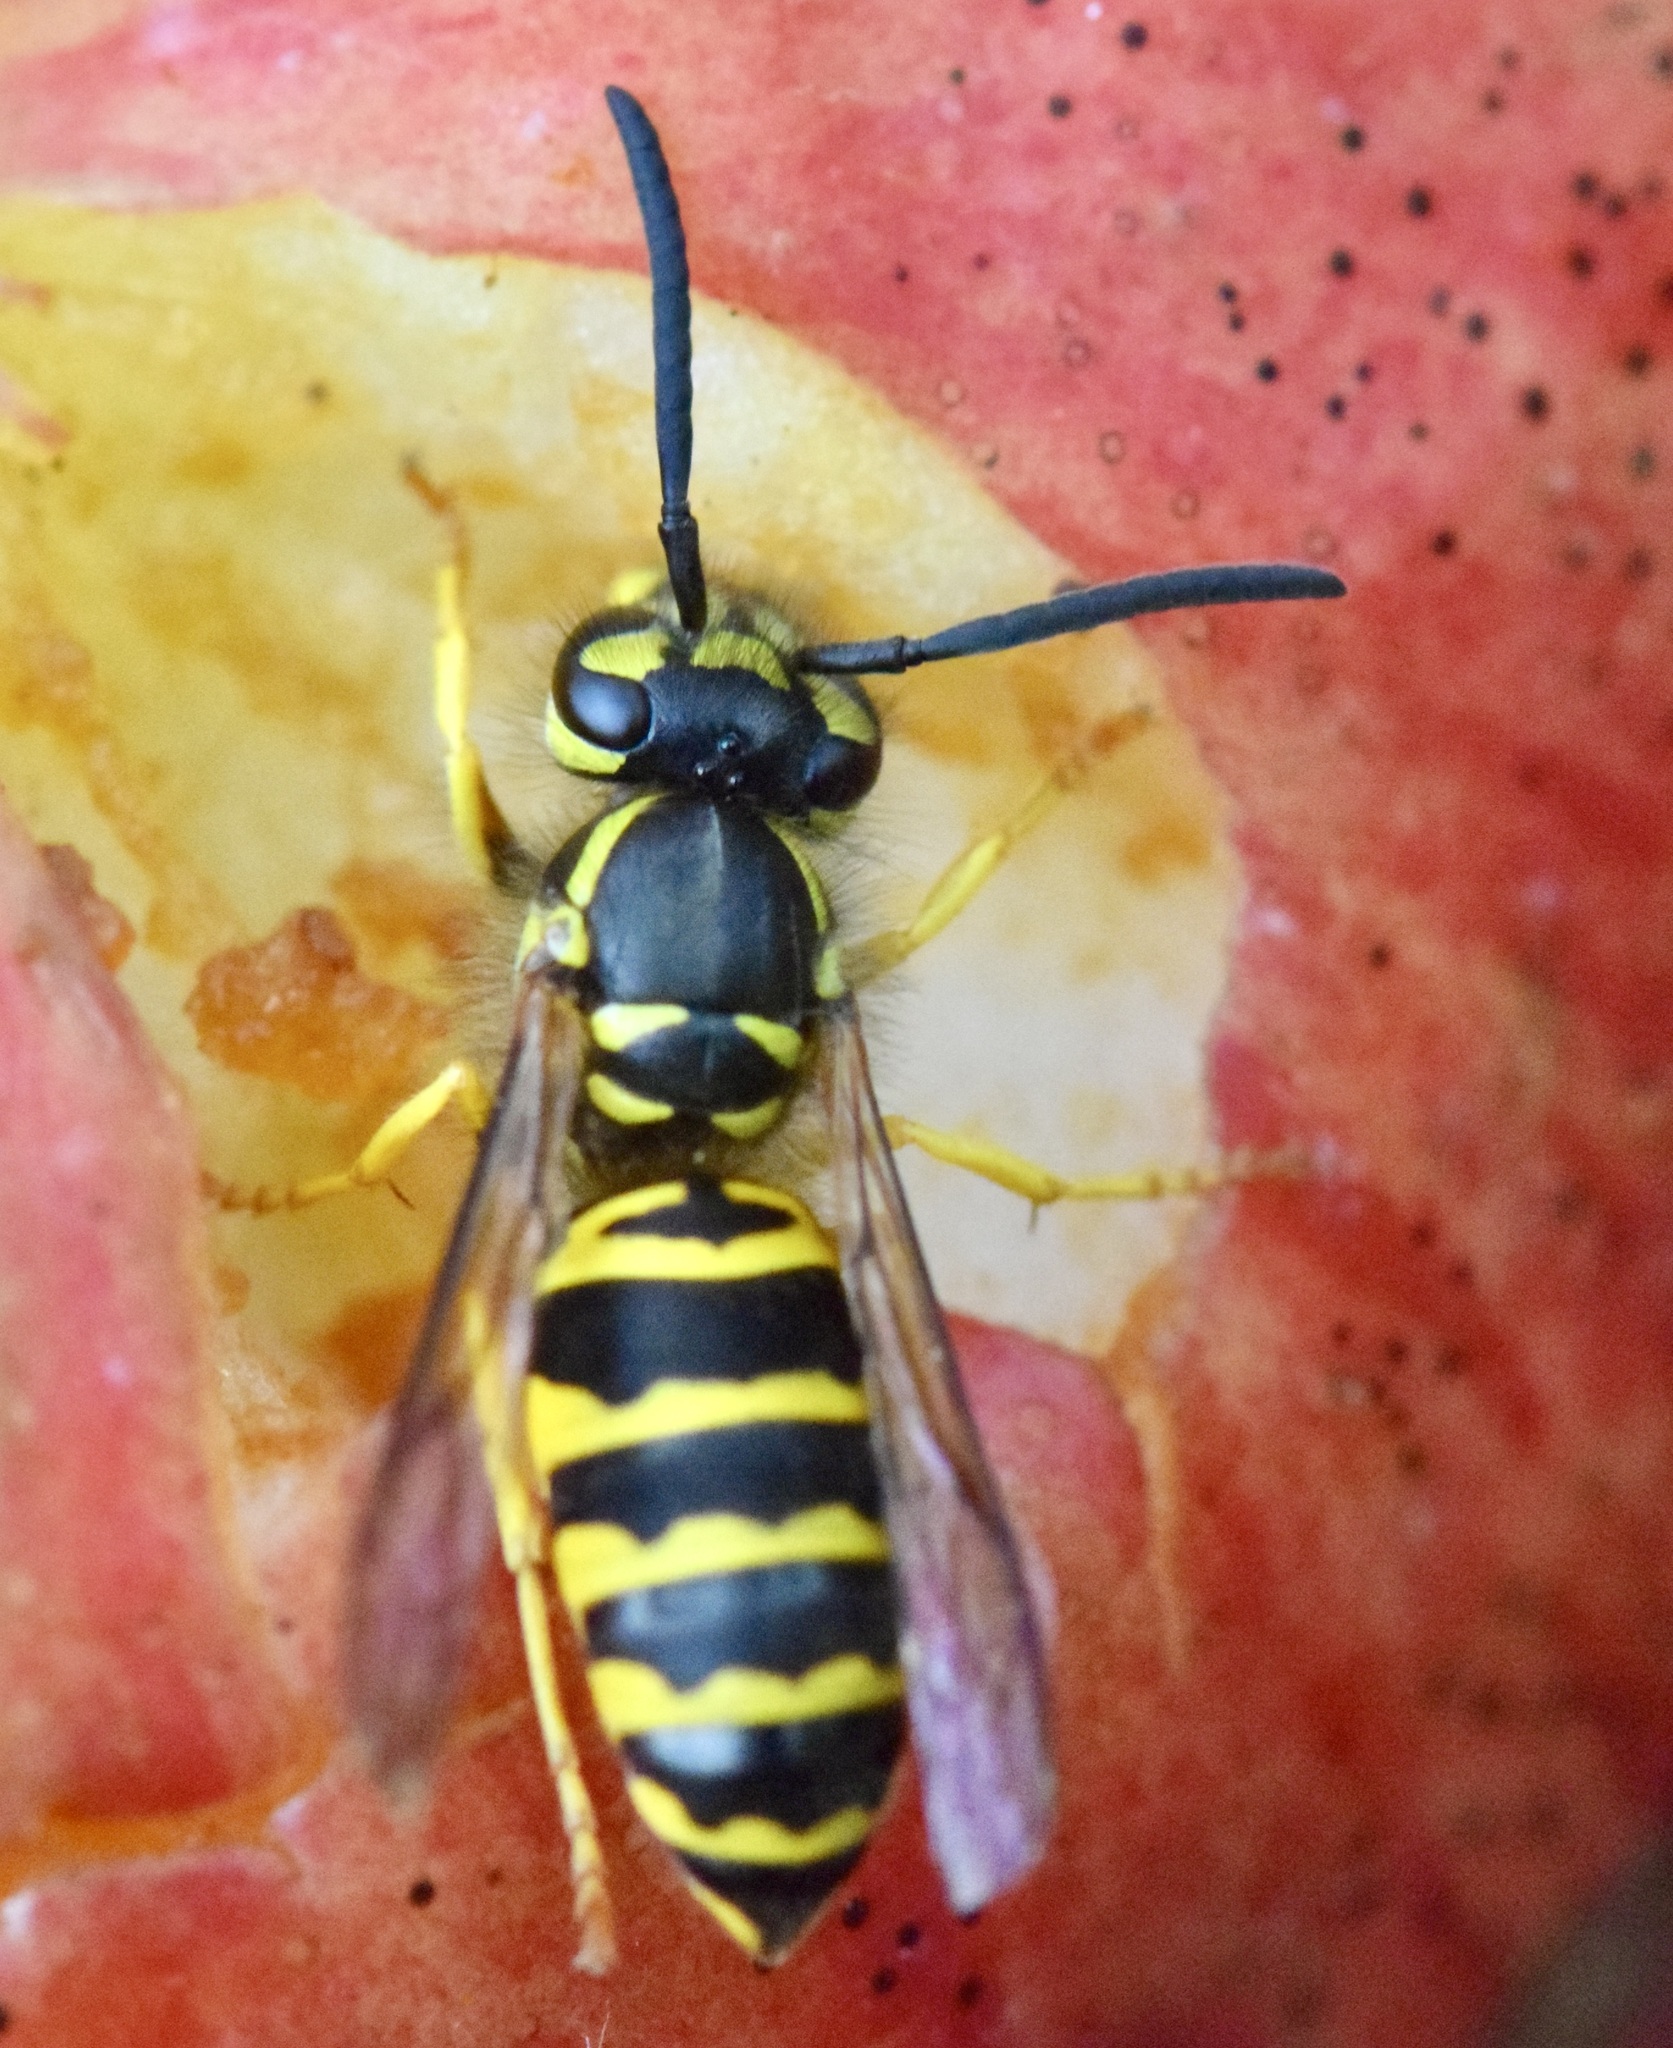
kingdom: Animalia
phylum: Arthropoda
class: Insecta
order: Hymenoptera
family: Vespidae
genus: Vespula
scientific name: Vespula maculifrons
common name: Eastern yellowjacket
